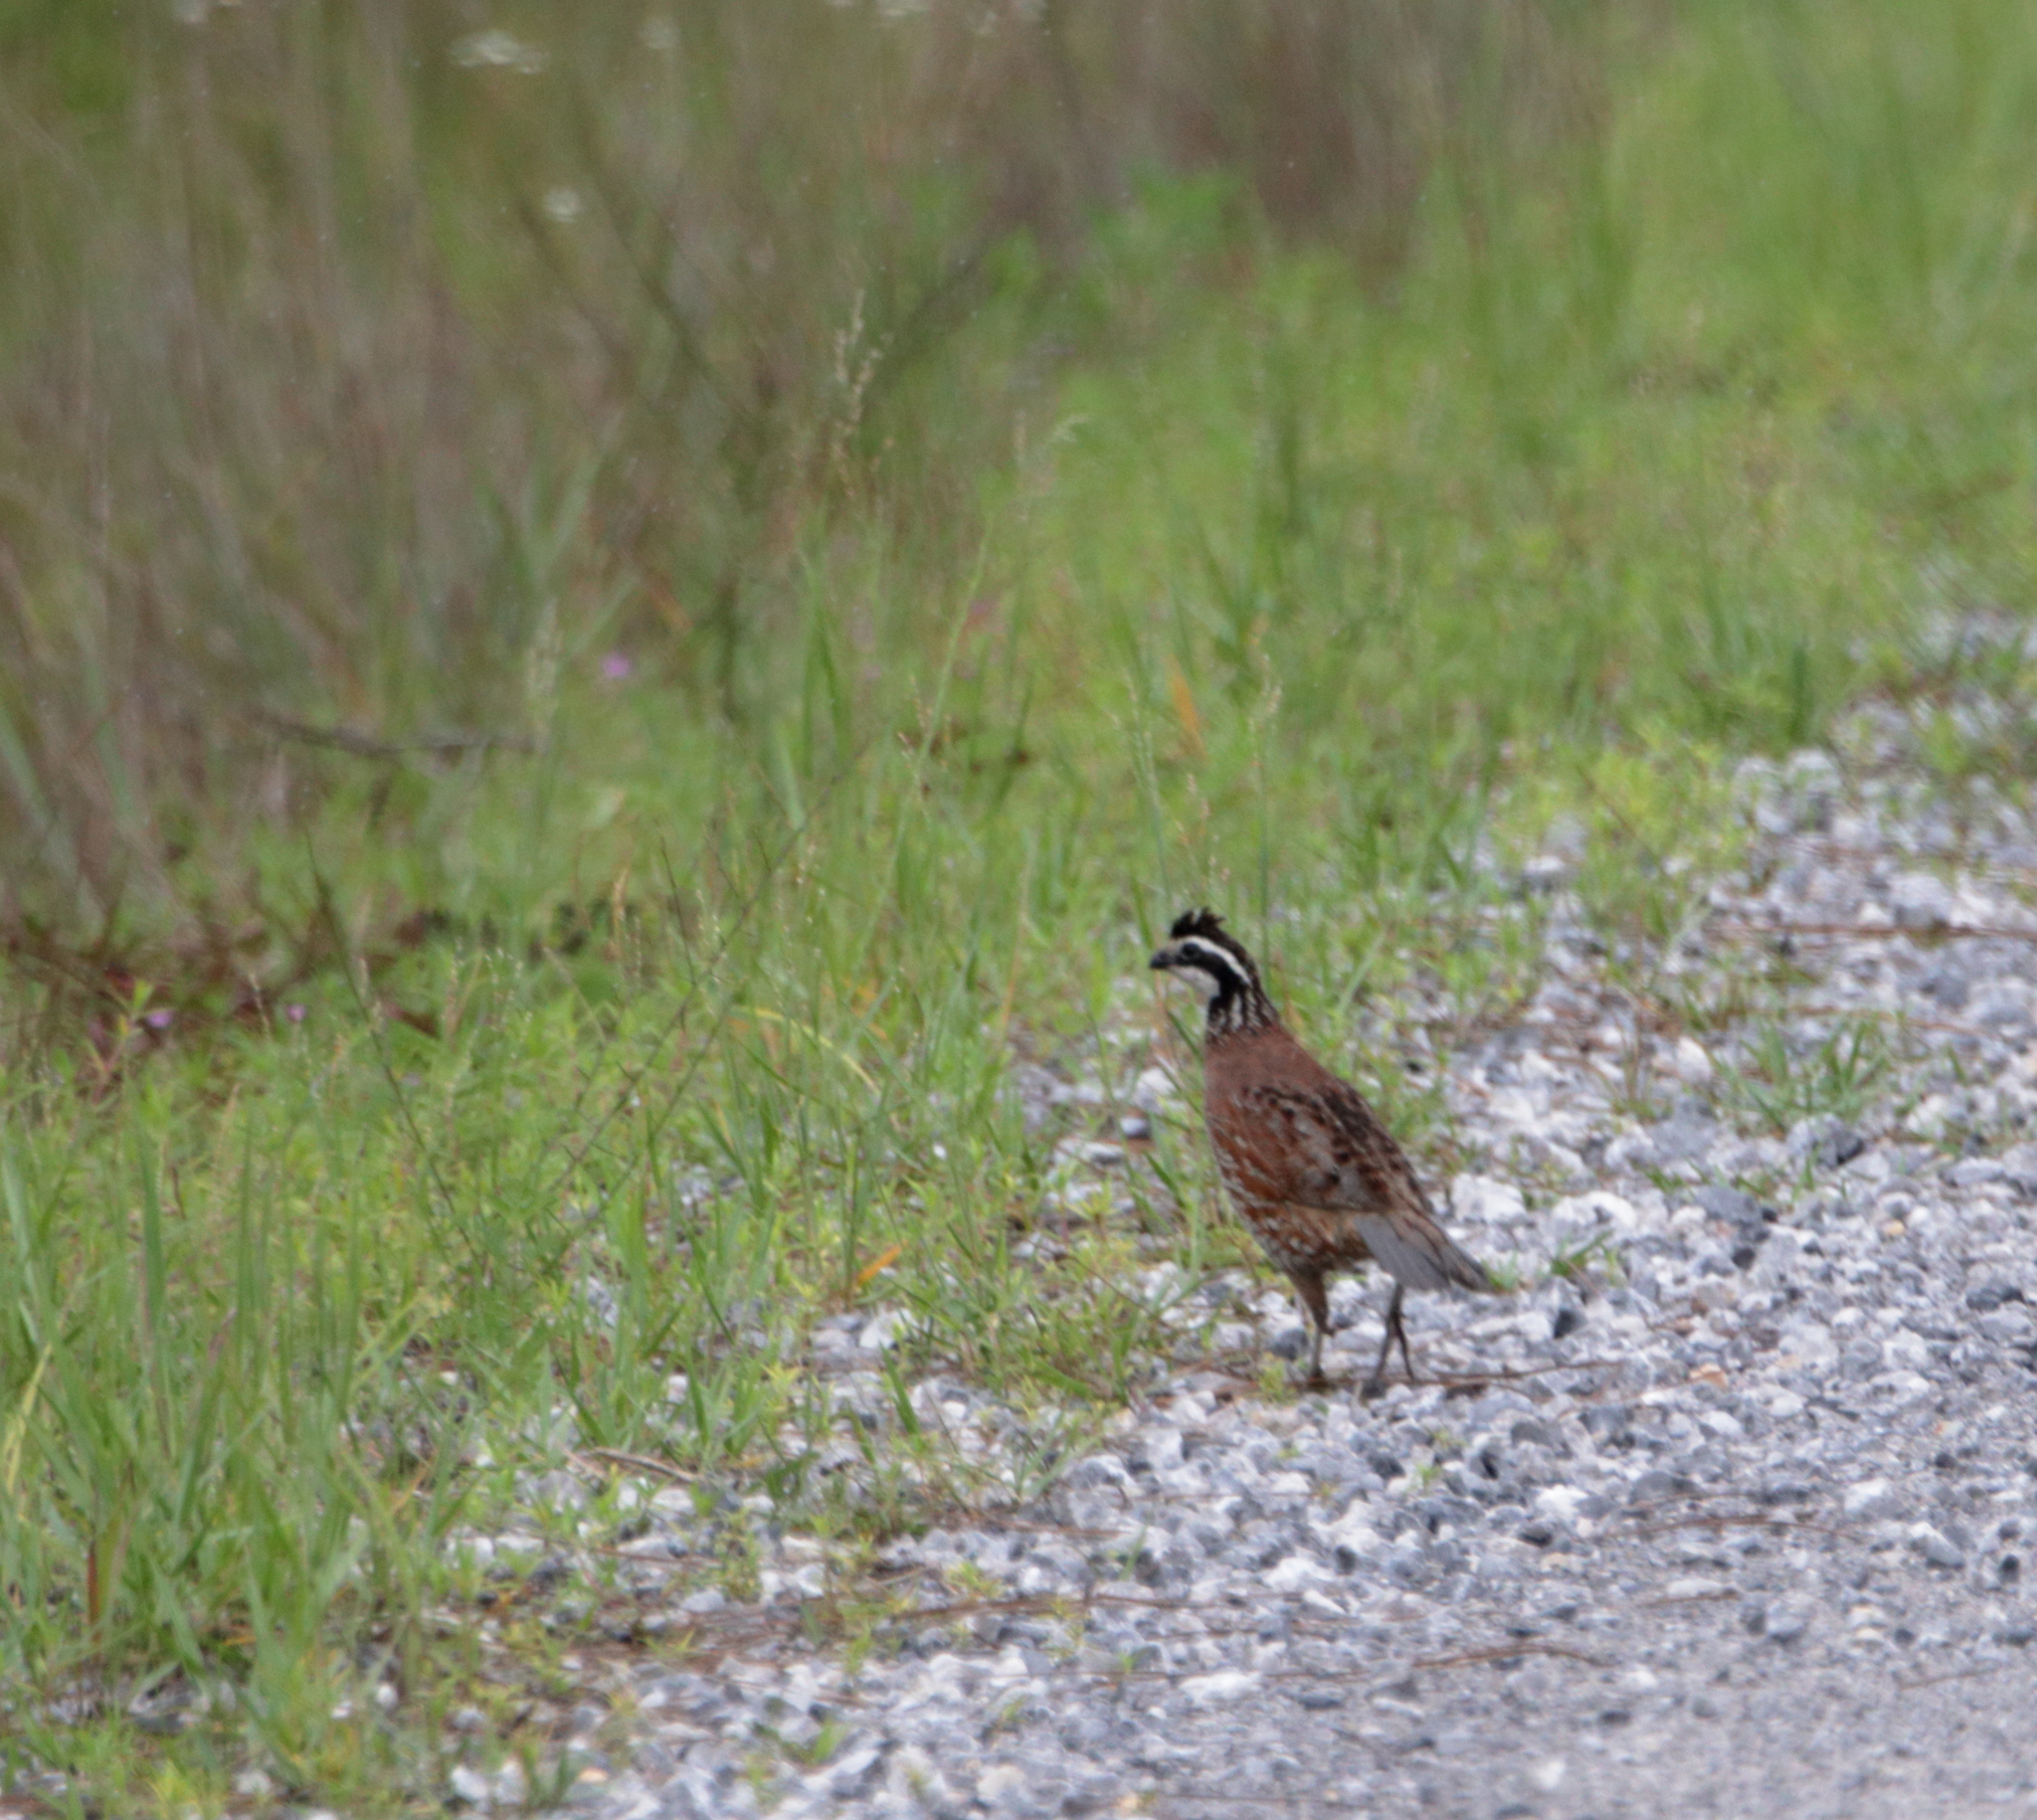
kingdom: Animalia
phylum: Chordata
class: Aves
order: Galliformes
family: Odontophoridae
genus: Colinus
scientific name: Colinus virginianus
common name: Northern bobwhite
